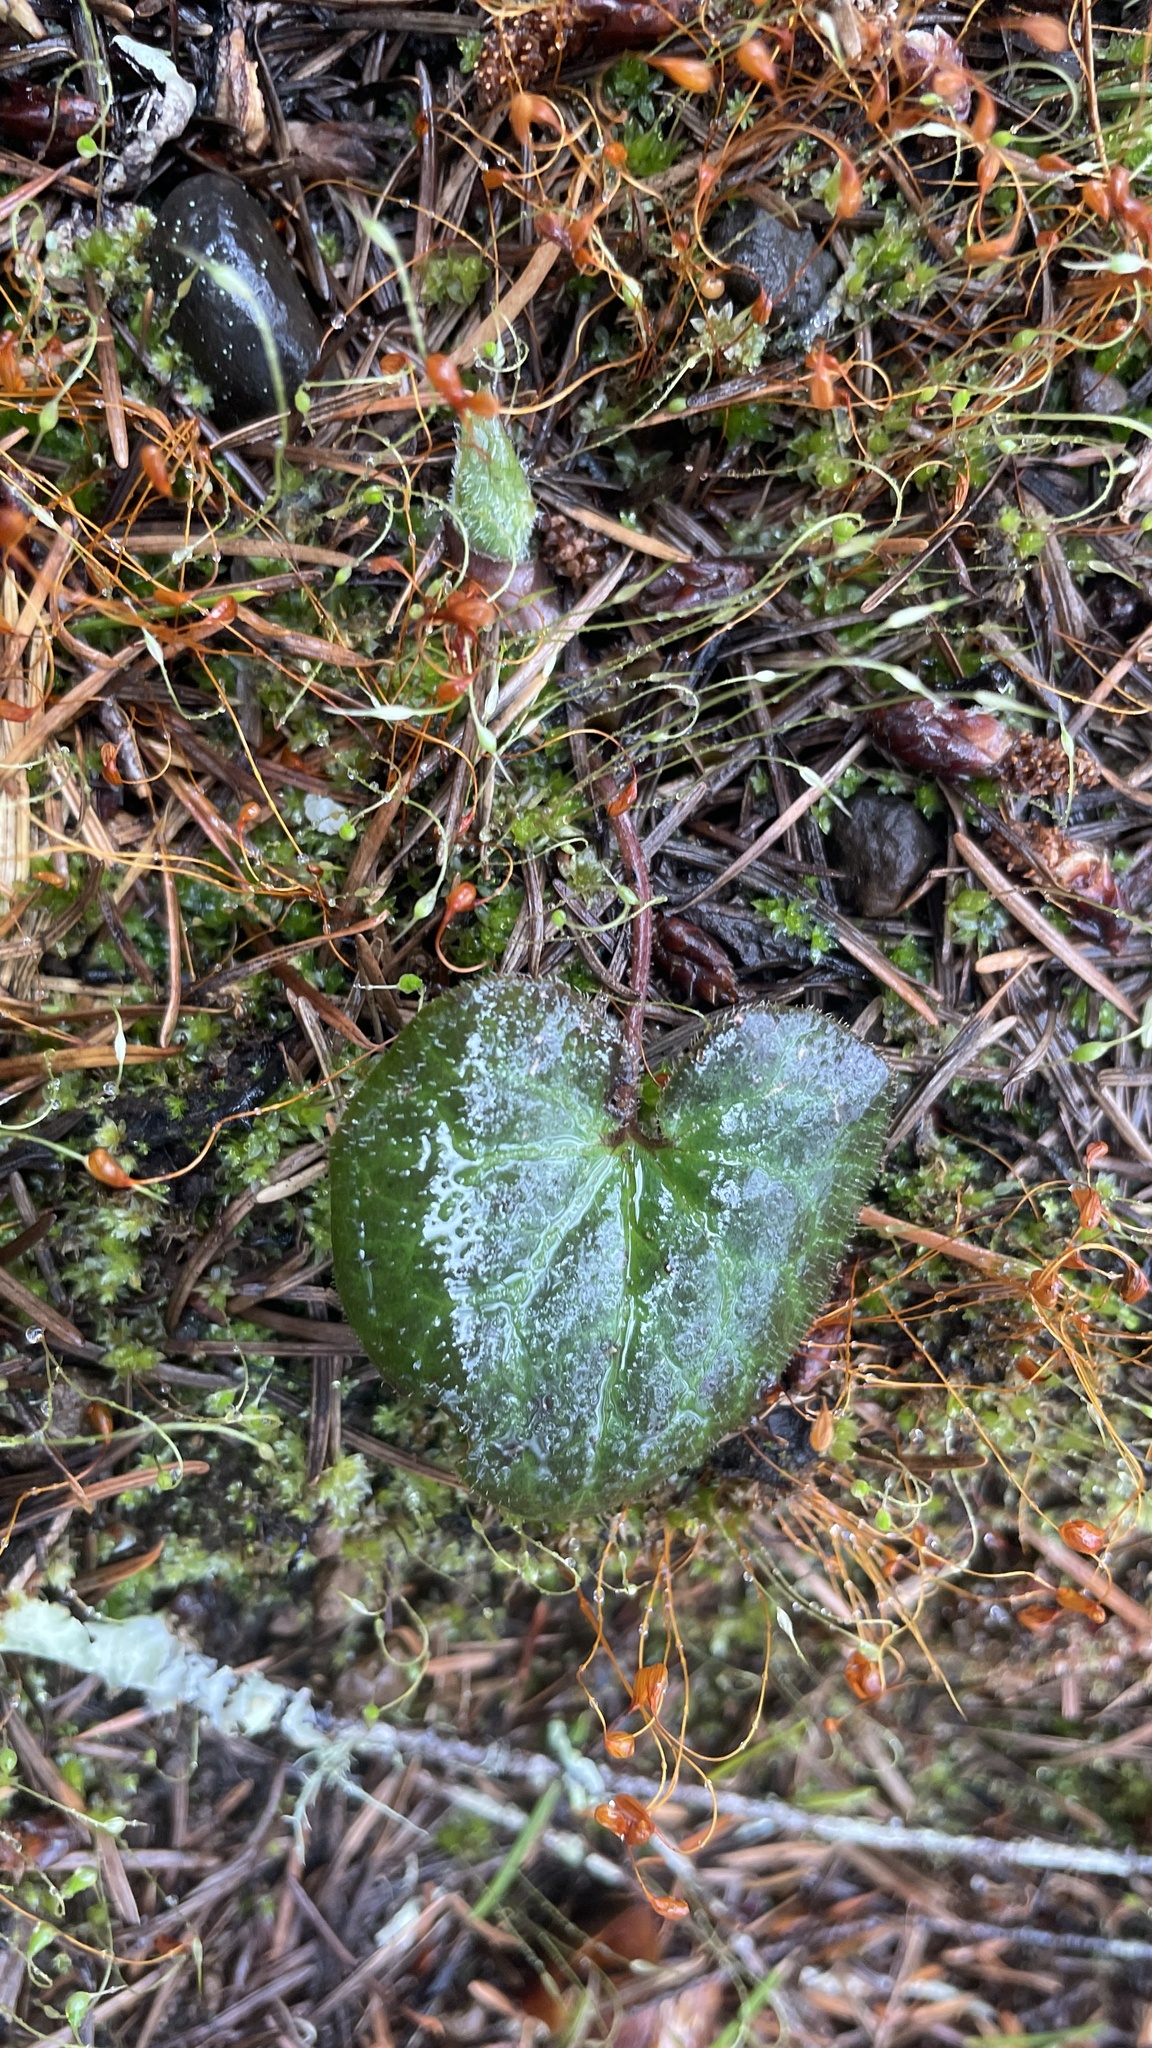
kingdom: Plantae
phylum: Tracheophyta
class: Magnoliopsida
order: Piperales
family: Aristolochiaceae
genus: Asarum
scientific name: Asarum caudatum
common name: Wild ginger
